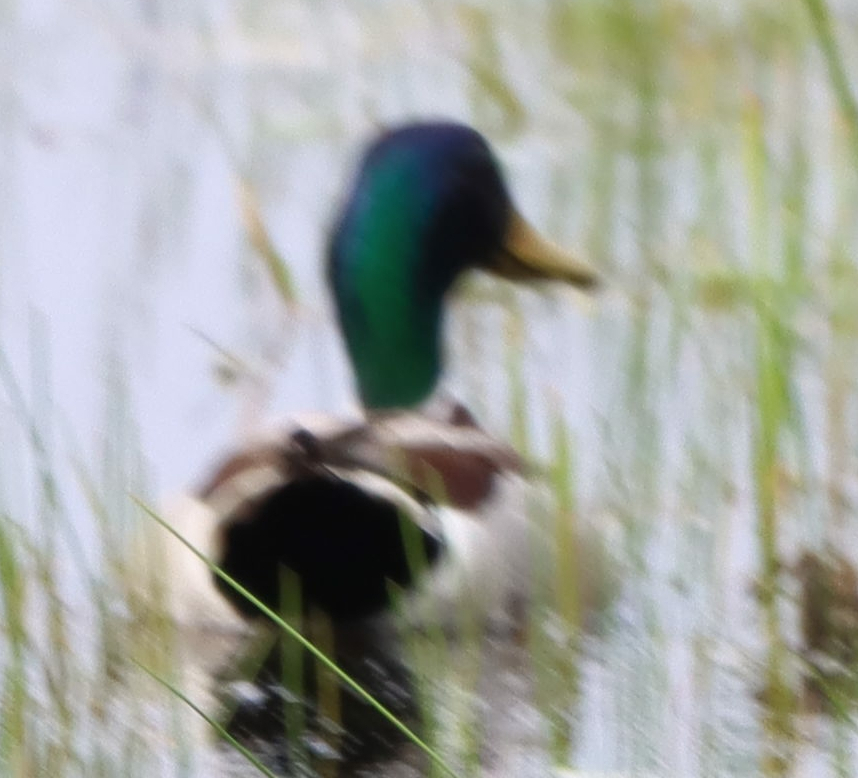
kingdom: Animalia
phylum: Chordata
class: Aves
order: Anseriformes
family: Anatidae
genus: Anas
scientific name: Anas platyrhynchos
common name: Mallard
